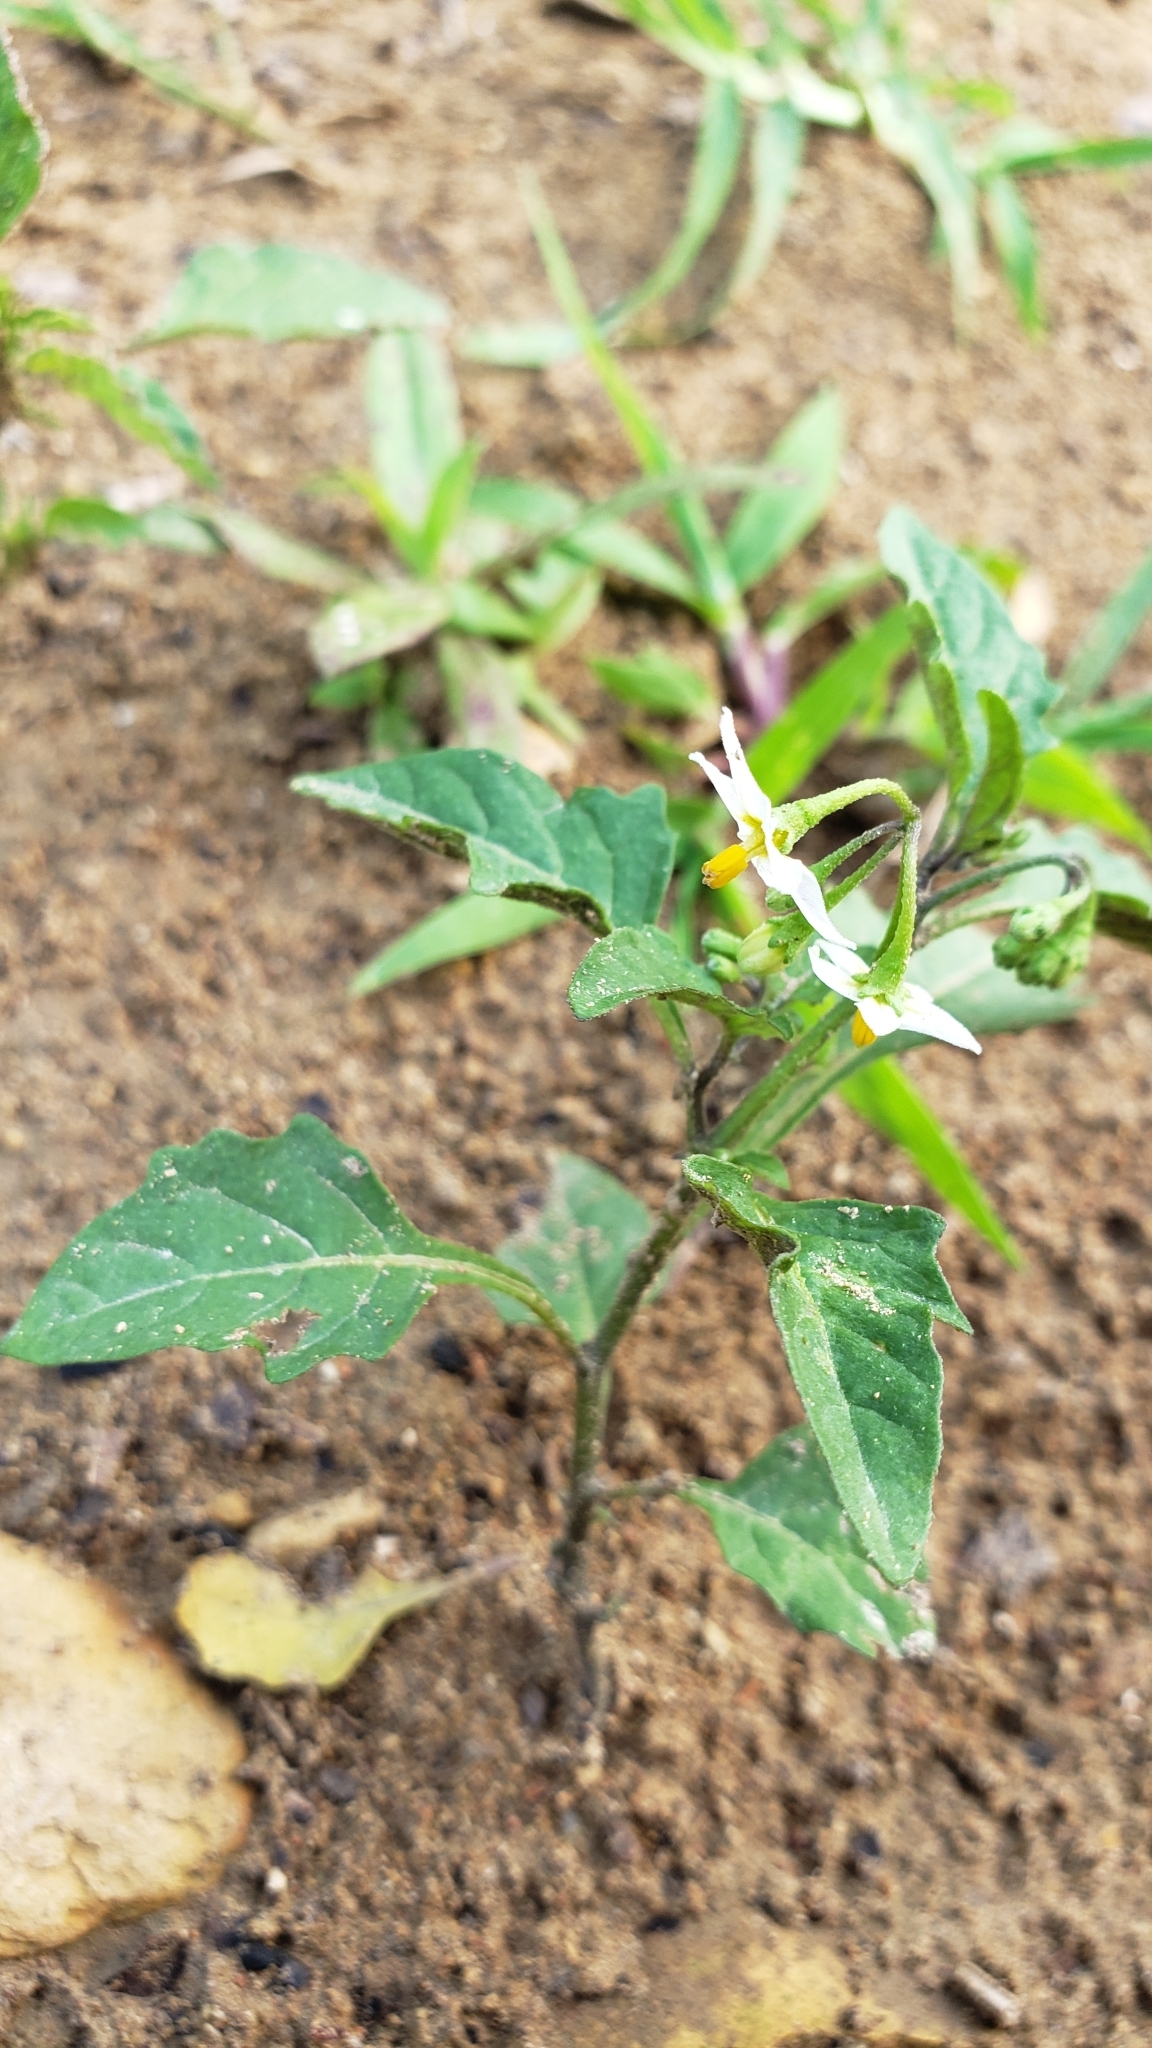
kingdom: Plantae
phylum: Tracheophyta
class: Magnoliopsida
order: Solanales
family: Solanaceae
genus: Solanum
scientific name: Solanum emulans
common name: Eastern black nightshade
